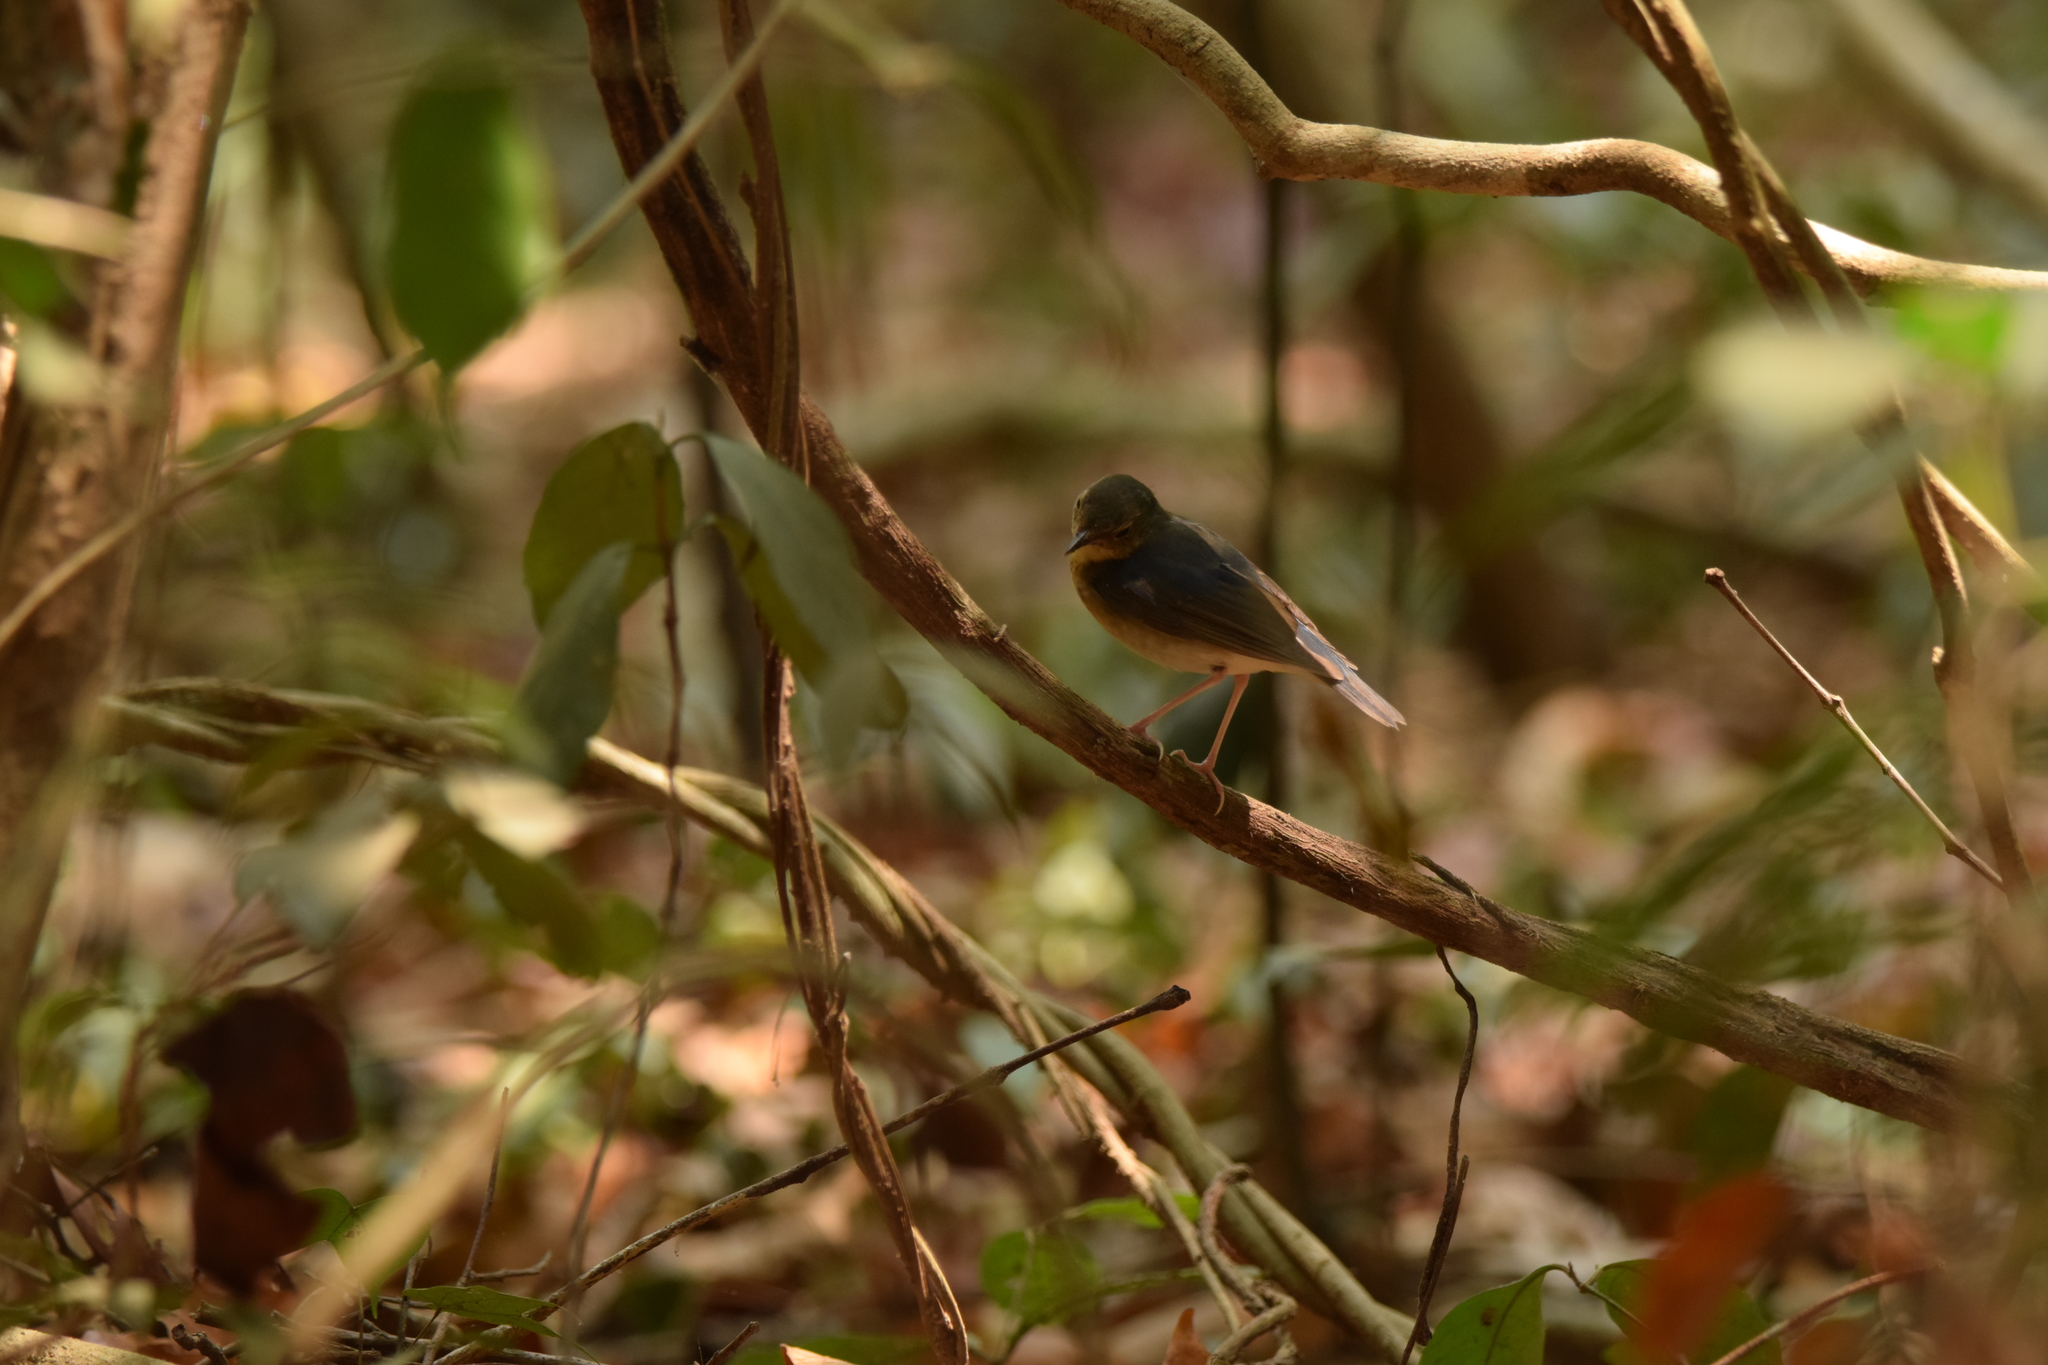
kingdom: Animalia
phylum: Chordata
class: Aves
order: Passeriformes
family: Muscicapidae
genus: Luscinia
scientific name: Luscinia cyane
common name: Siberian blue robin
